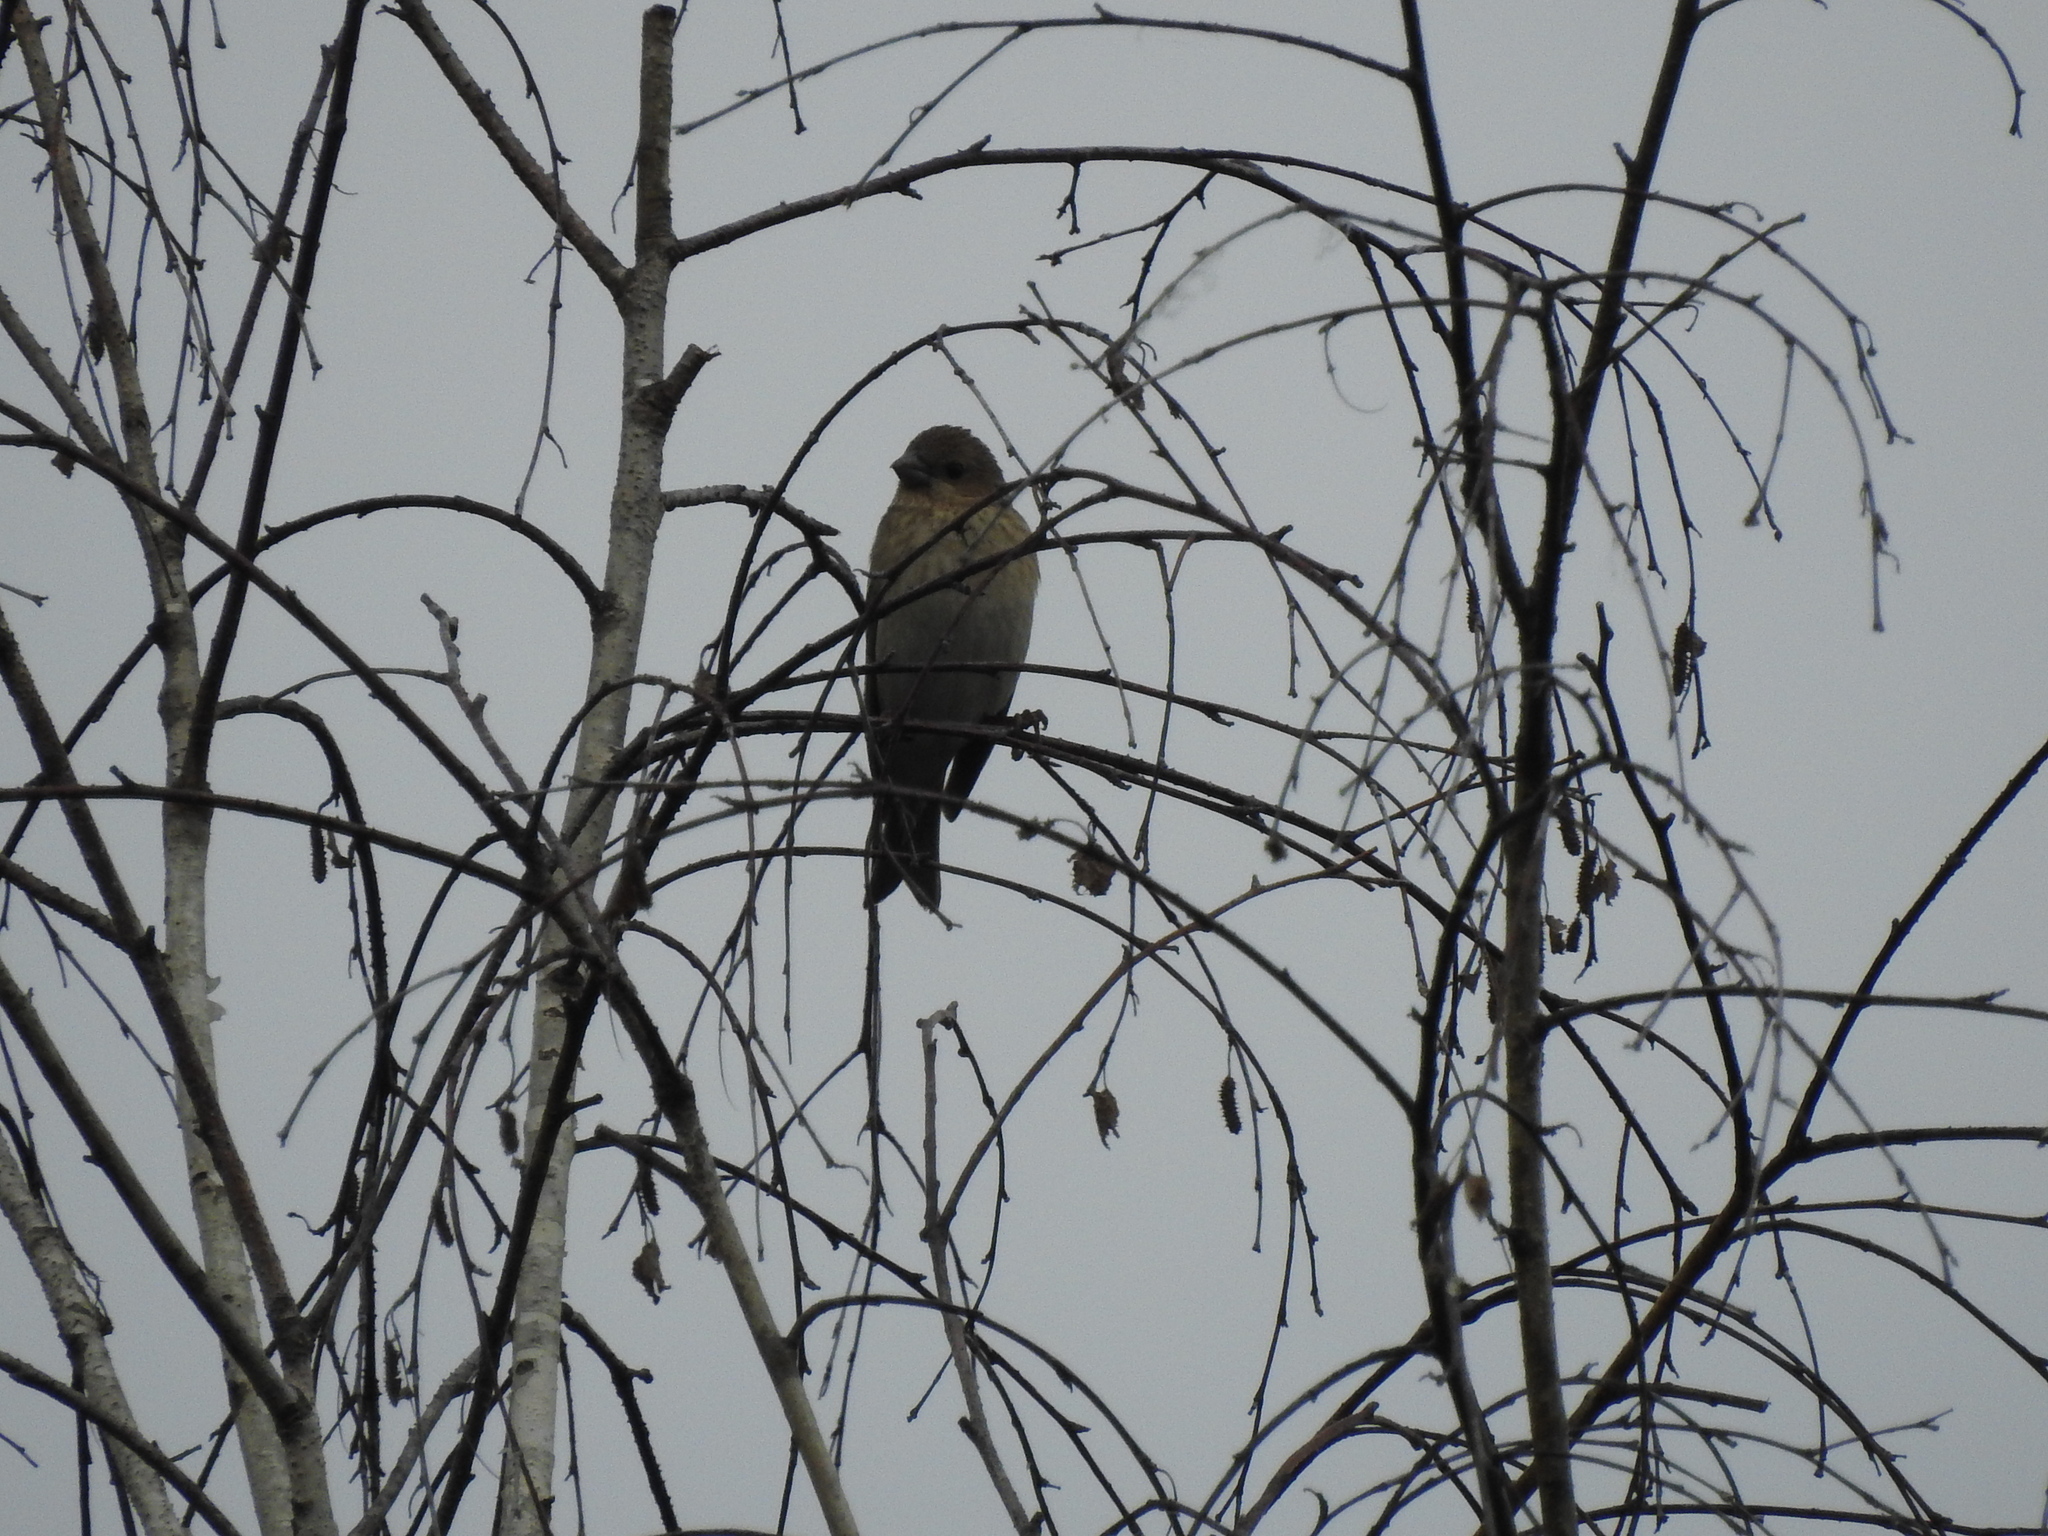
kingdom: Animalia
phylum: Chordata
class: Aves
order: Passeriformes
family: Fringillidae
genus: Carpodacus
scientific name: Carpodacus erythrinus
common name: Common rosefinch
